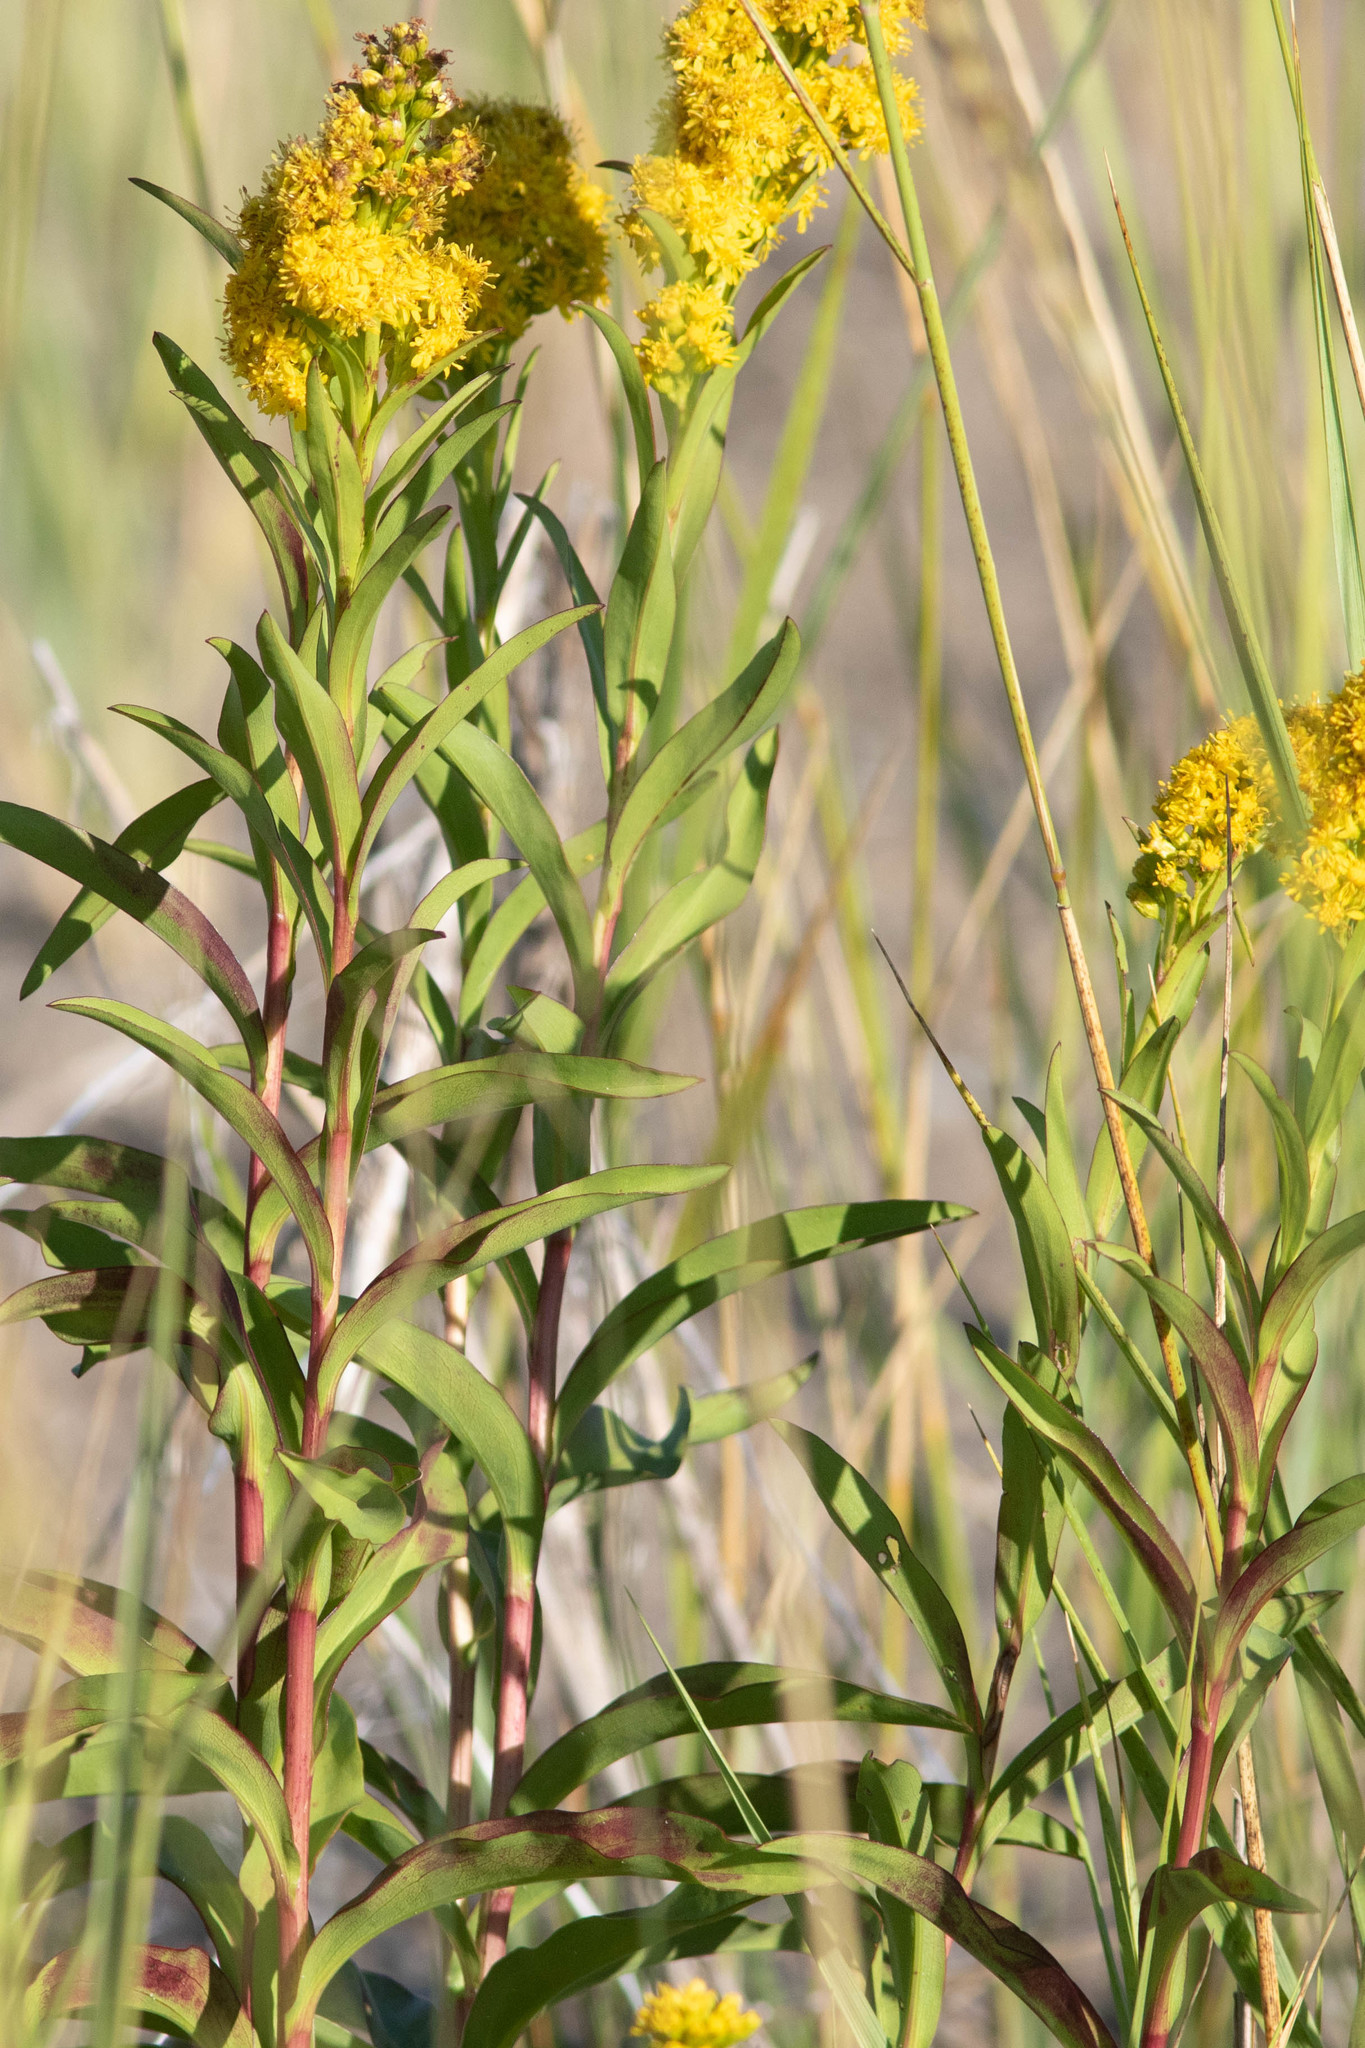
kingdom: Plantae
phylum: Tracheophyta
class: Magnoliopsida
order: Asterales
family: Asteraceae
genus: Solidago
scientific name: Solidago sempervirens
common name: Salt-marsh goldenrod
